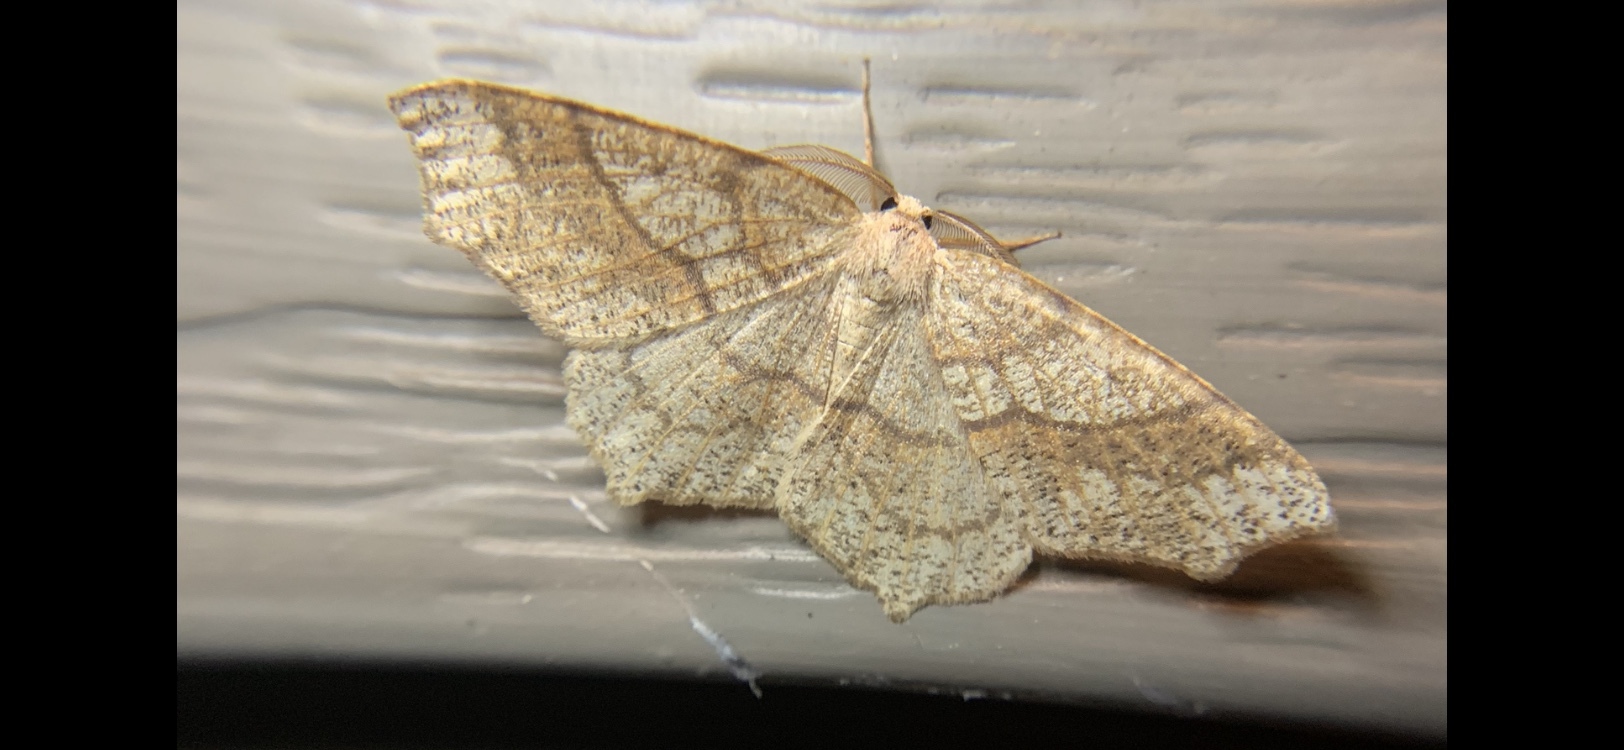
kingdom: Animalia
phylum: Arthropoda
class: Insecta
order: Lepidoptera
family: Geometridae
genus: Besma
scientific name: Besma quercivoraria
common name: Oak besma
